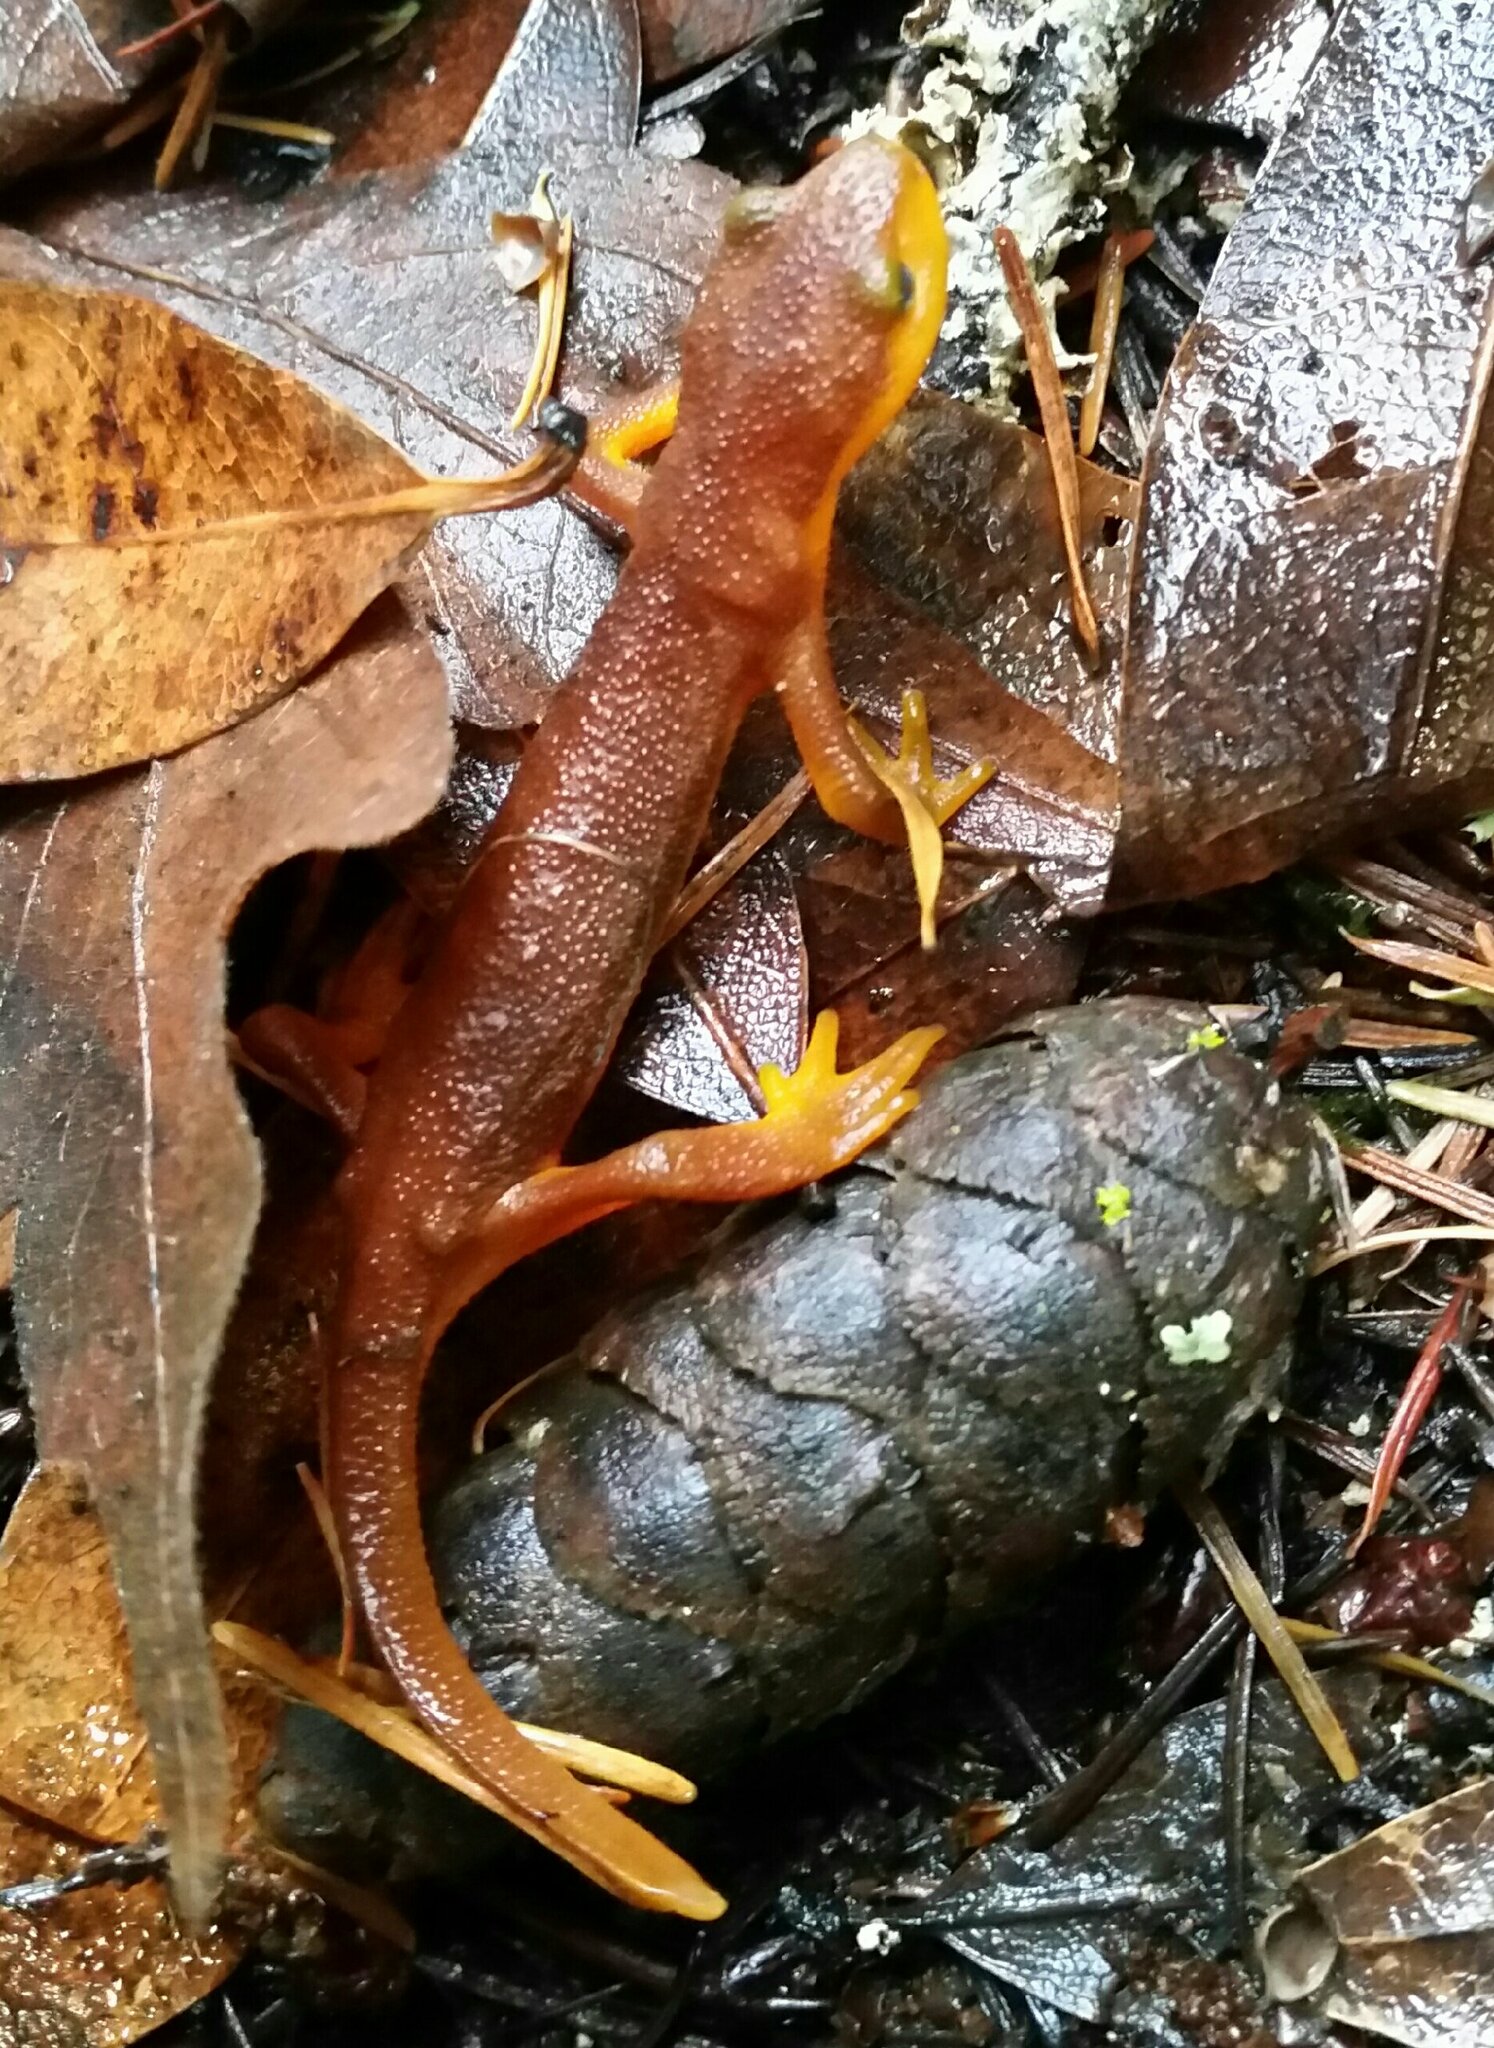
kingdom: Animalia
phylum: Chordata
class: Amphibia
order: Caudata
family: Salamandridae
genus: Taricha
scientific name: Taricha torosa
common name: California newt
